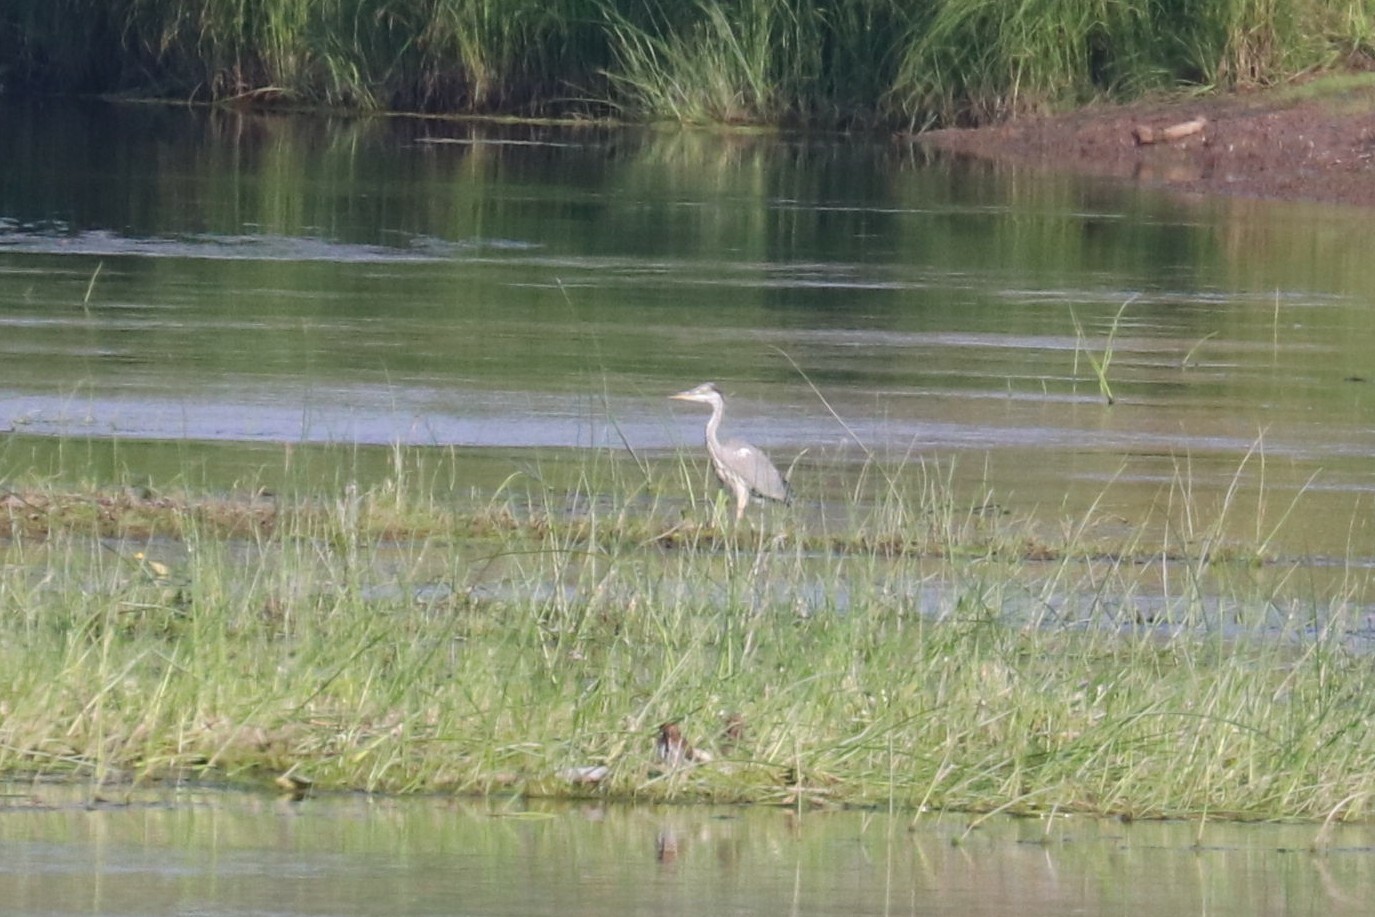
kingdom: Animalia
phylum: Chordata
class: Aves
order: Pelecaniformes
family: Ardeidae
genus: Ardea
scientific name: Ardea cinerea
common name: Grey heron
